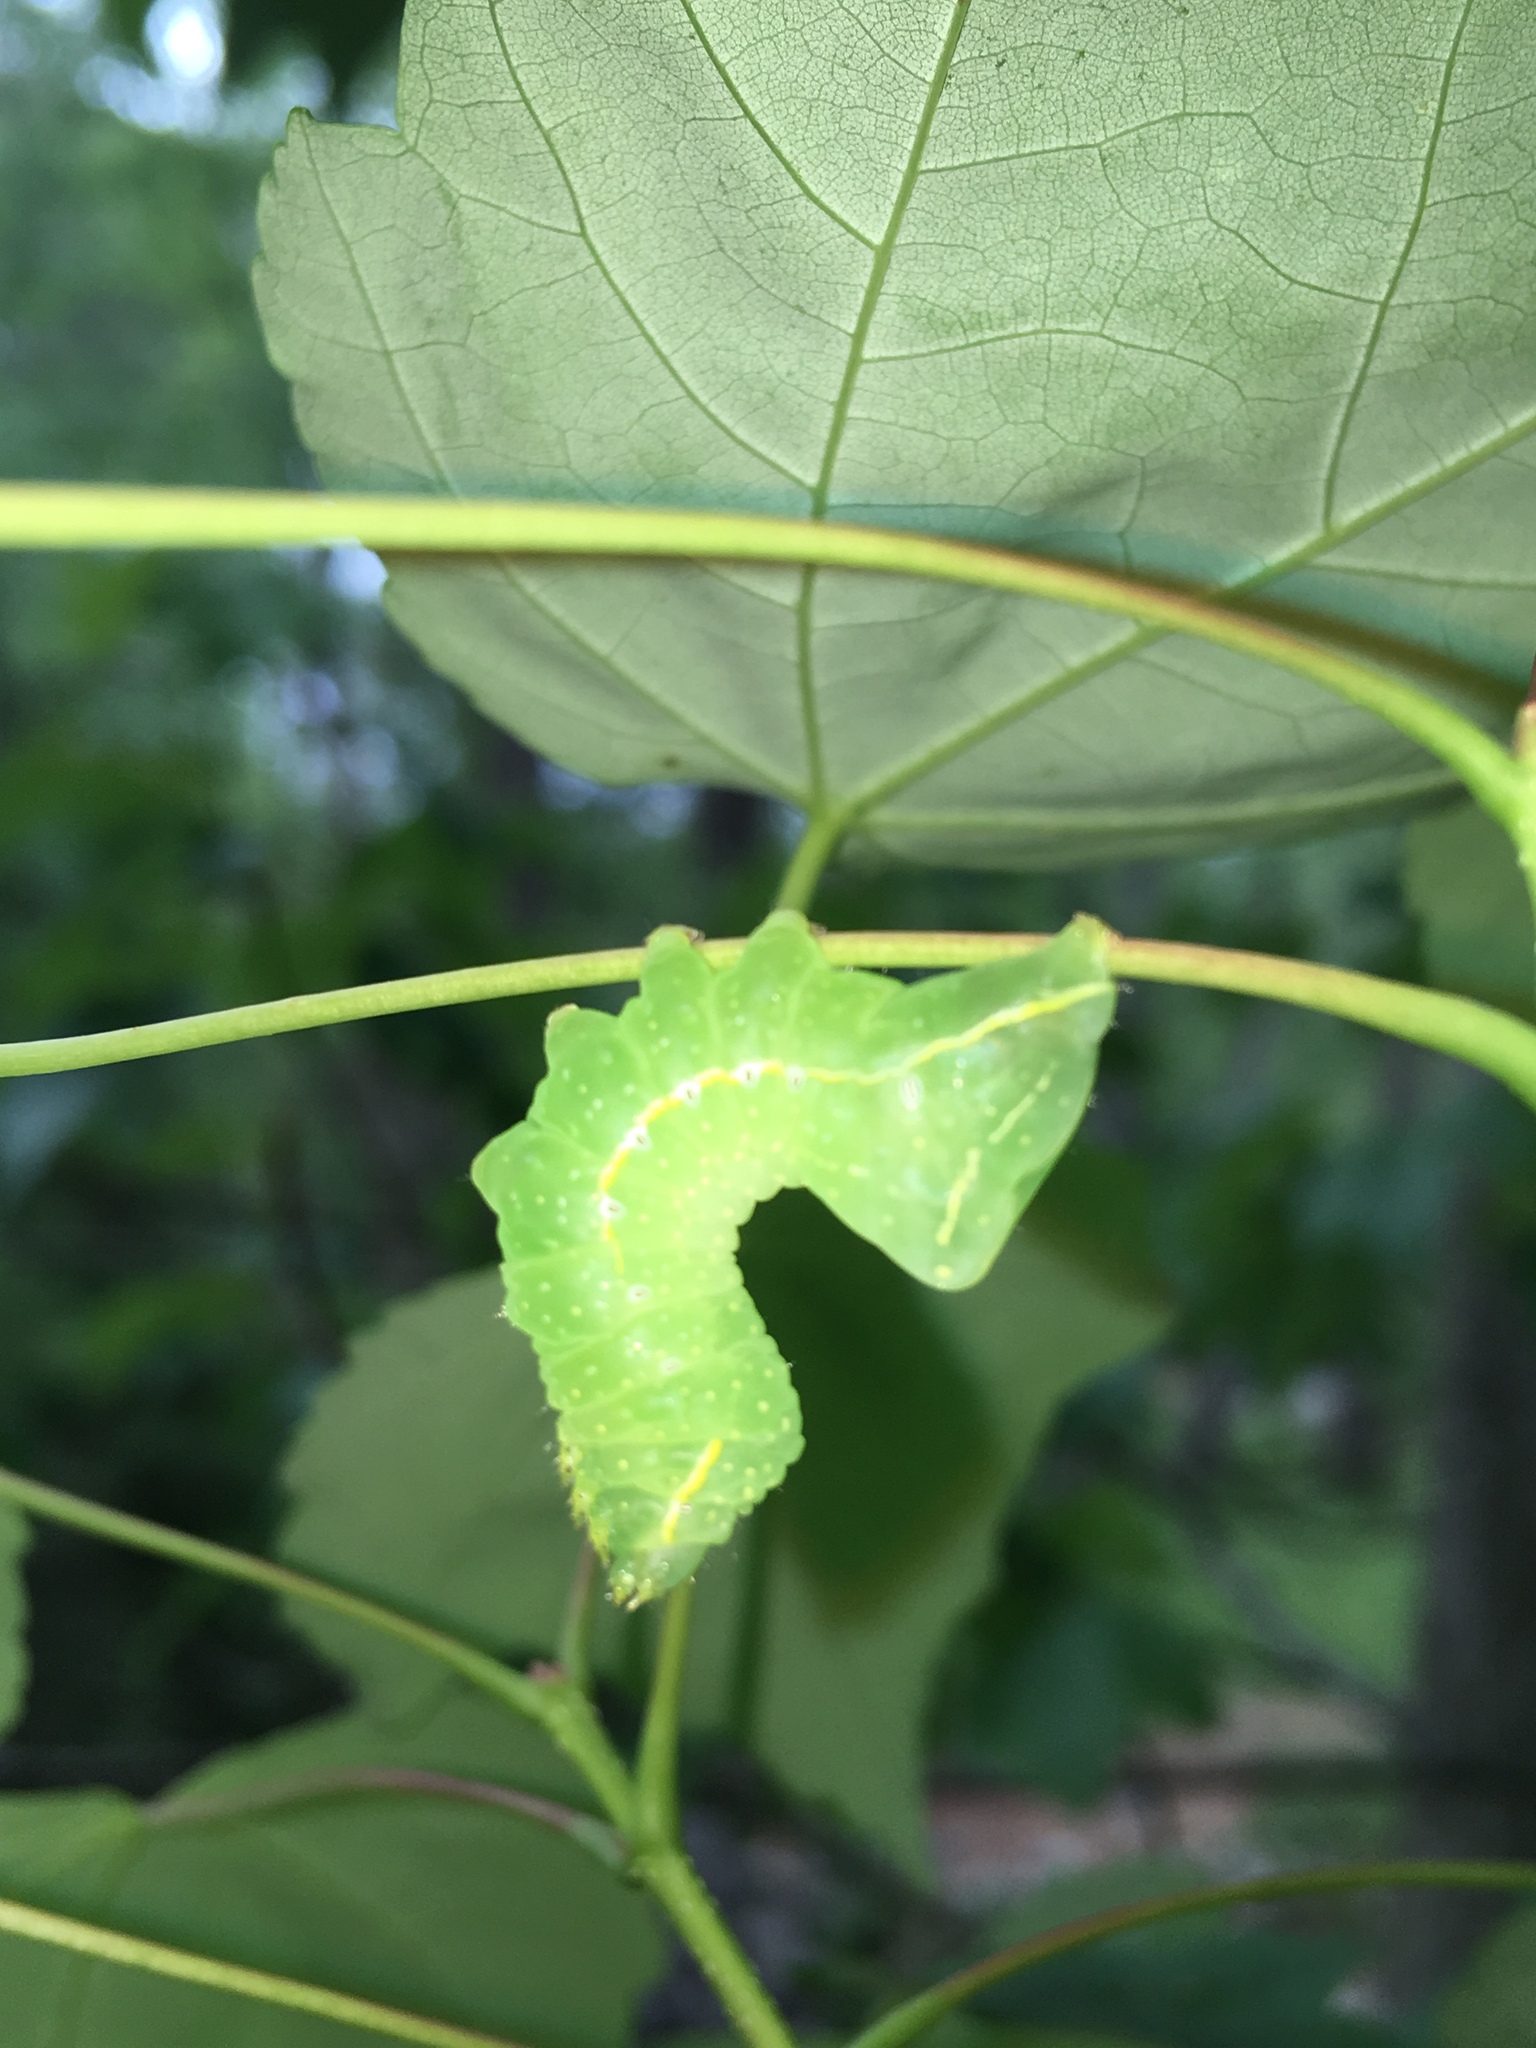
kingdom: Animalia
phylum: Arthropoda
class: Insecta
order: Lepidoptera
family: Noctuidae
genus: Amphipyra
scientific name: Amphipyra pyramidoides
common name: American copper underwing
